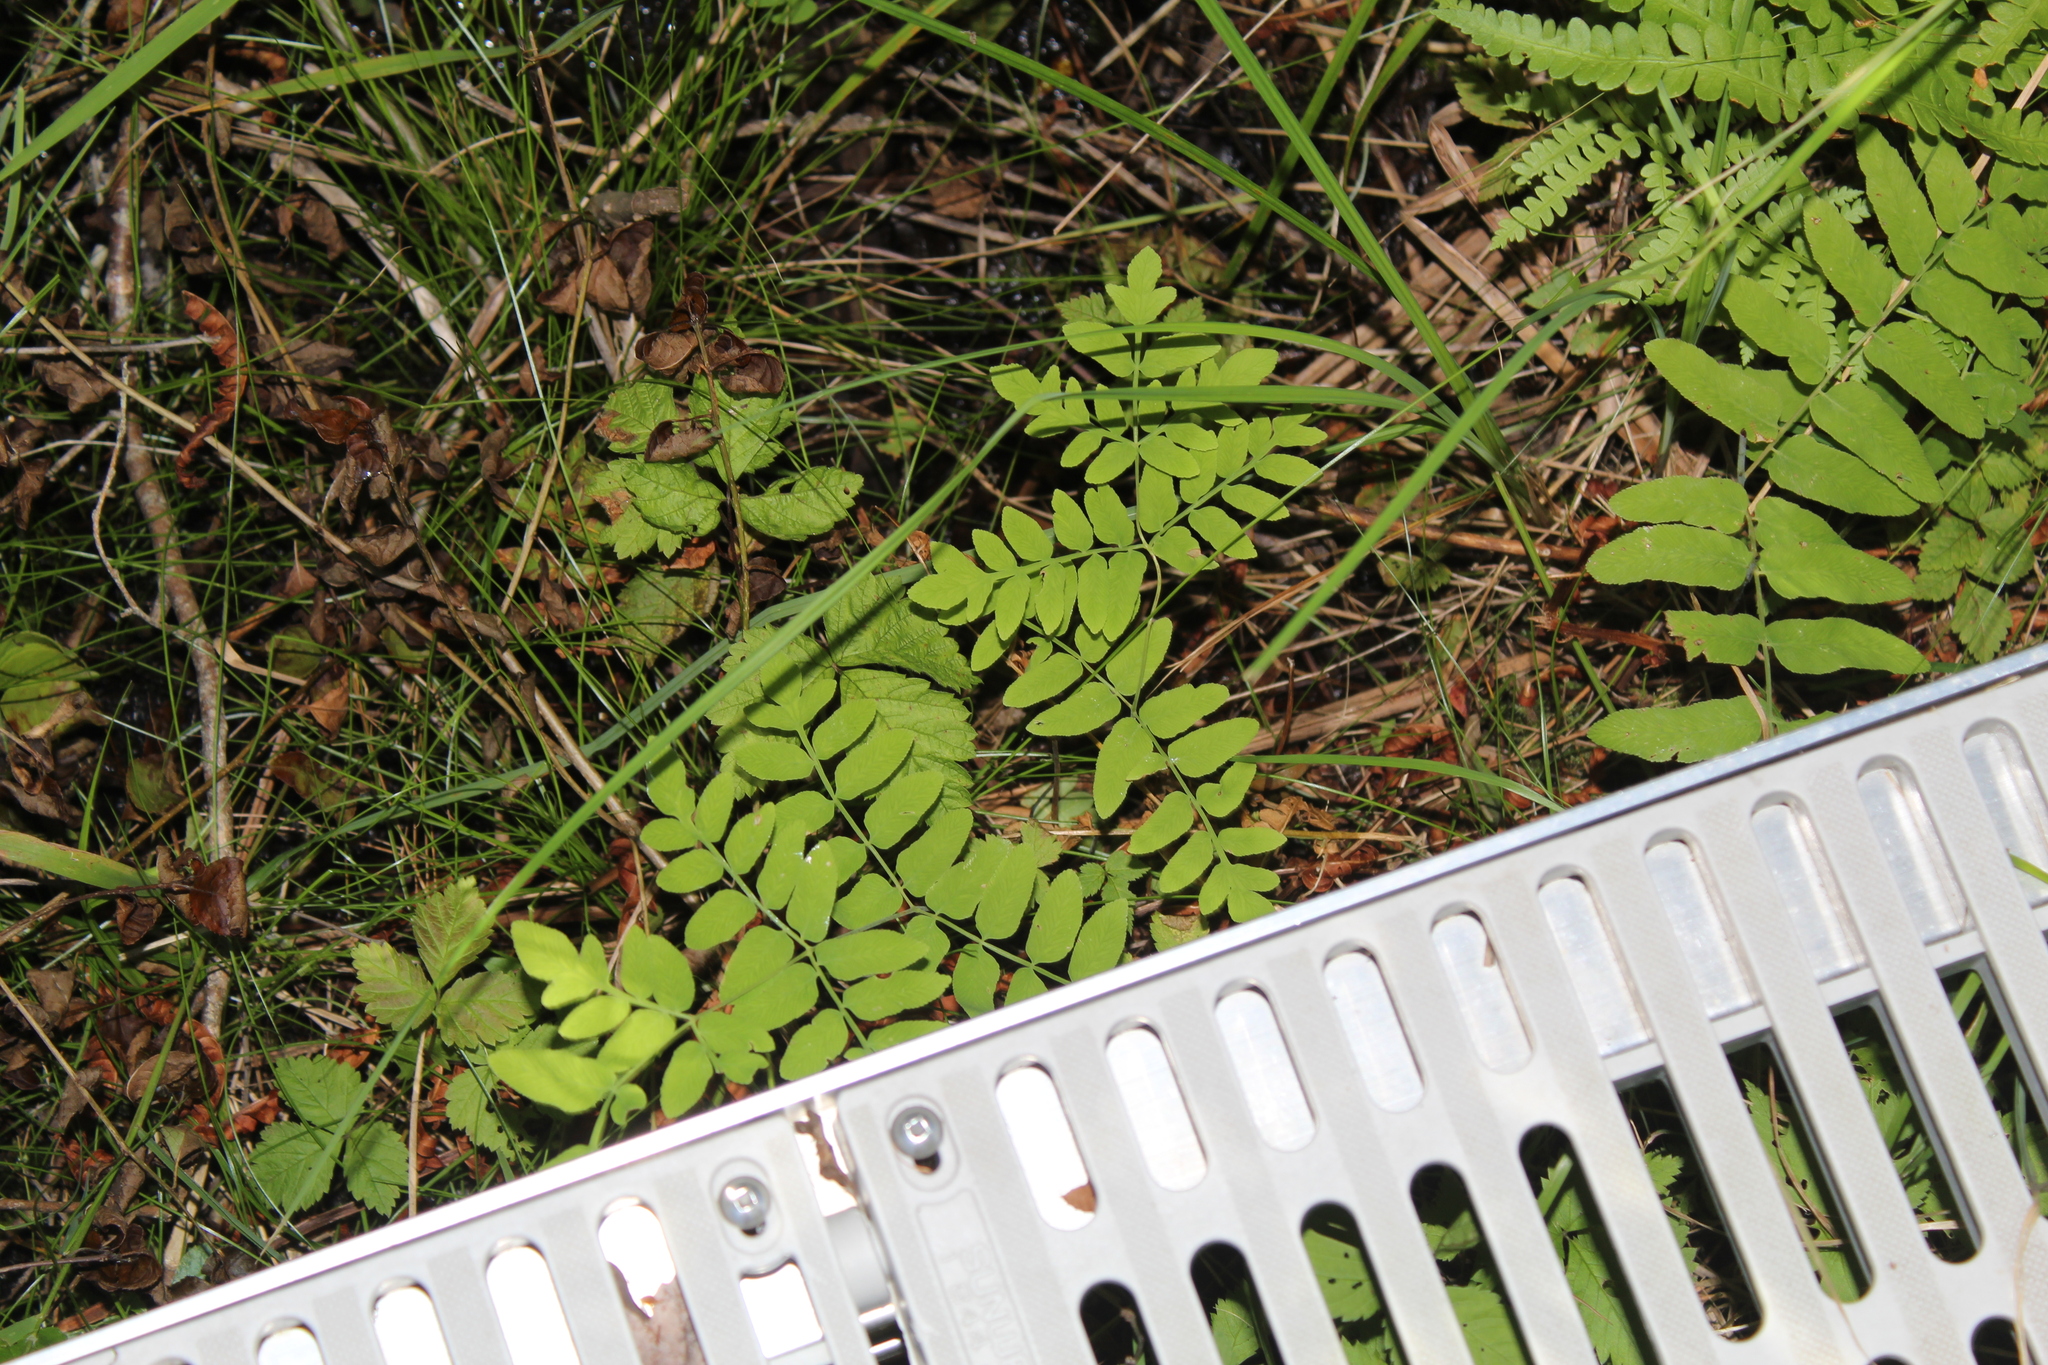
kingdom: Plantae
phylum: Tracheophyta
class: Polypodiopsida
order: Osmundales
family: Osmundaceae
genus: Osmunda
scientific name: Osmunda spectabilis
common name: American royal fern
